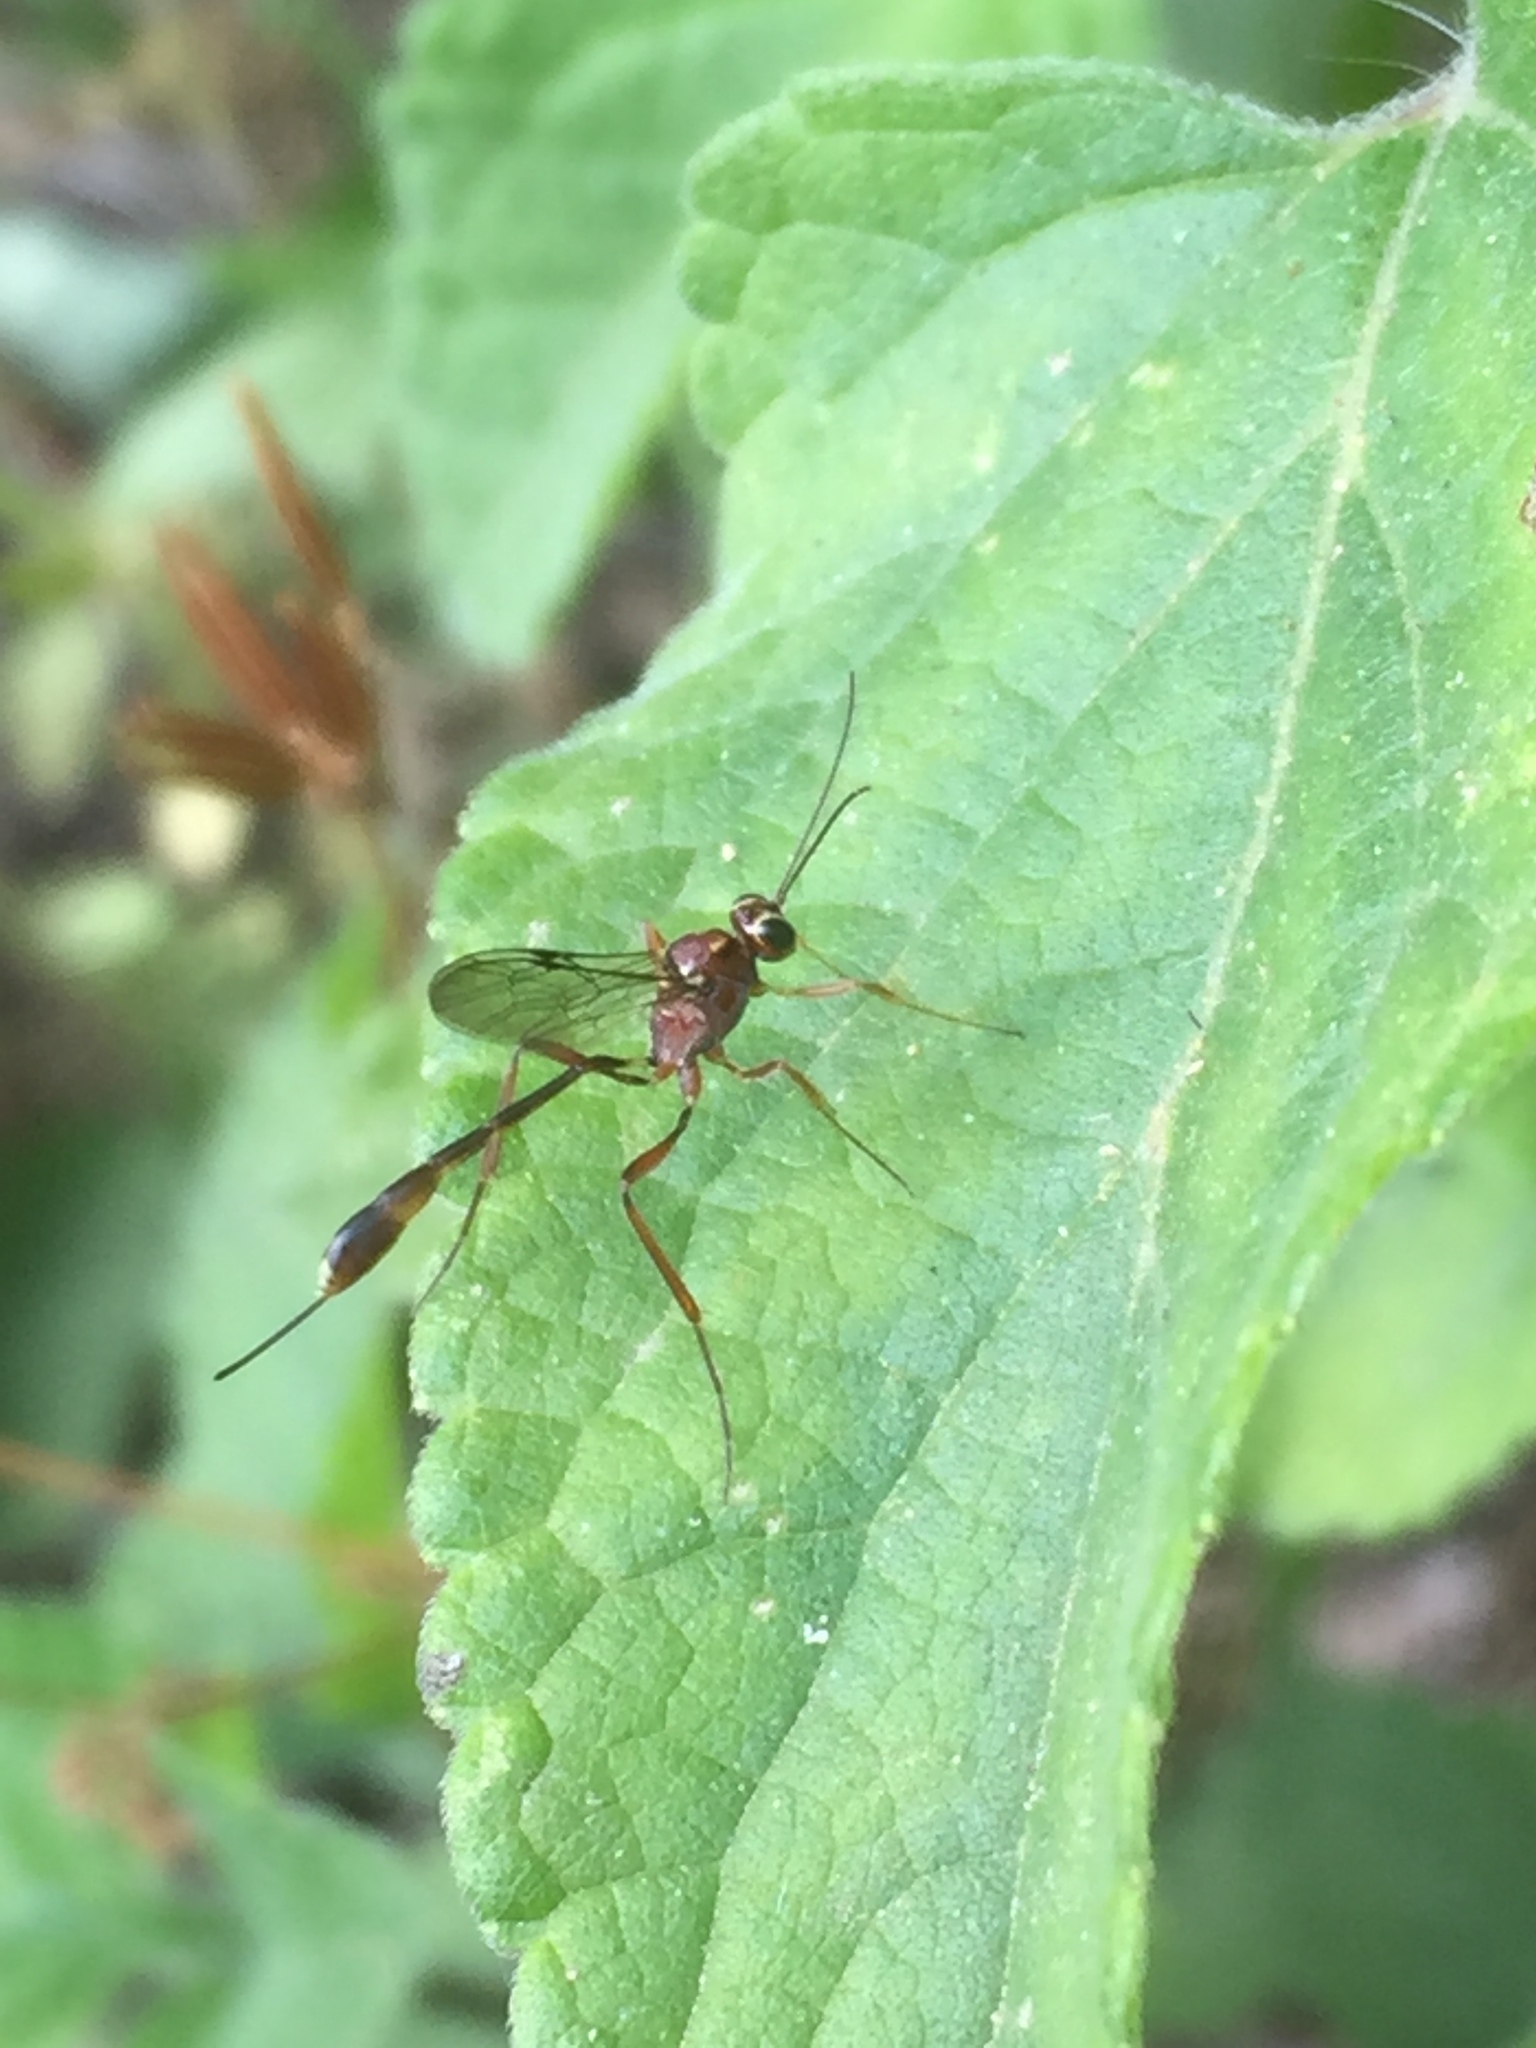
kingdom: Animalia
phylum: Arthropoda
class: Insecta
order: Hymenoptera
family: Ichneumonidae
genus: Anomalon
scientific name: Anomalon
